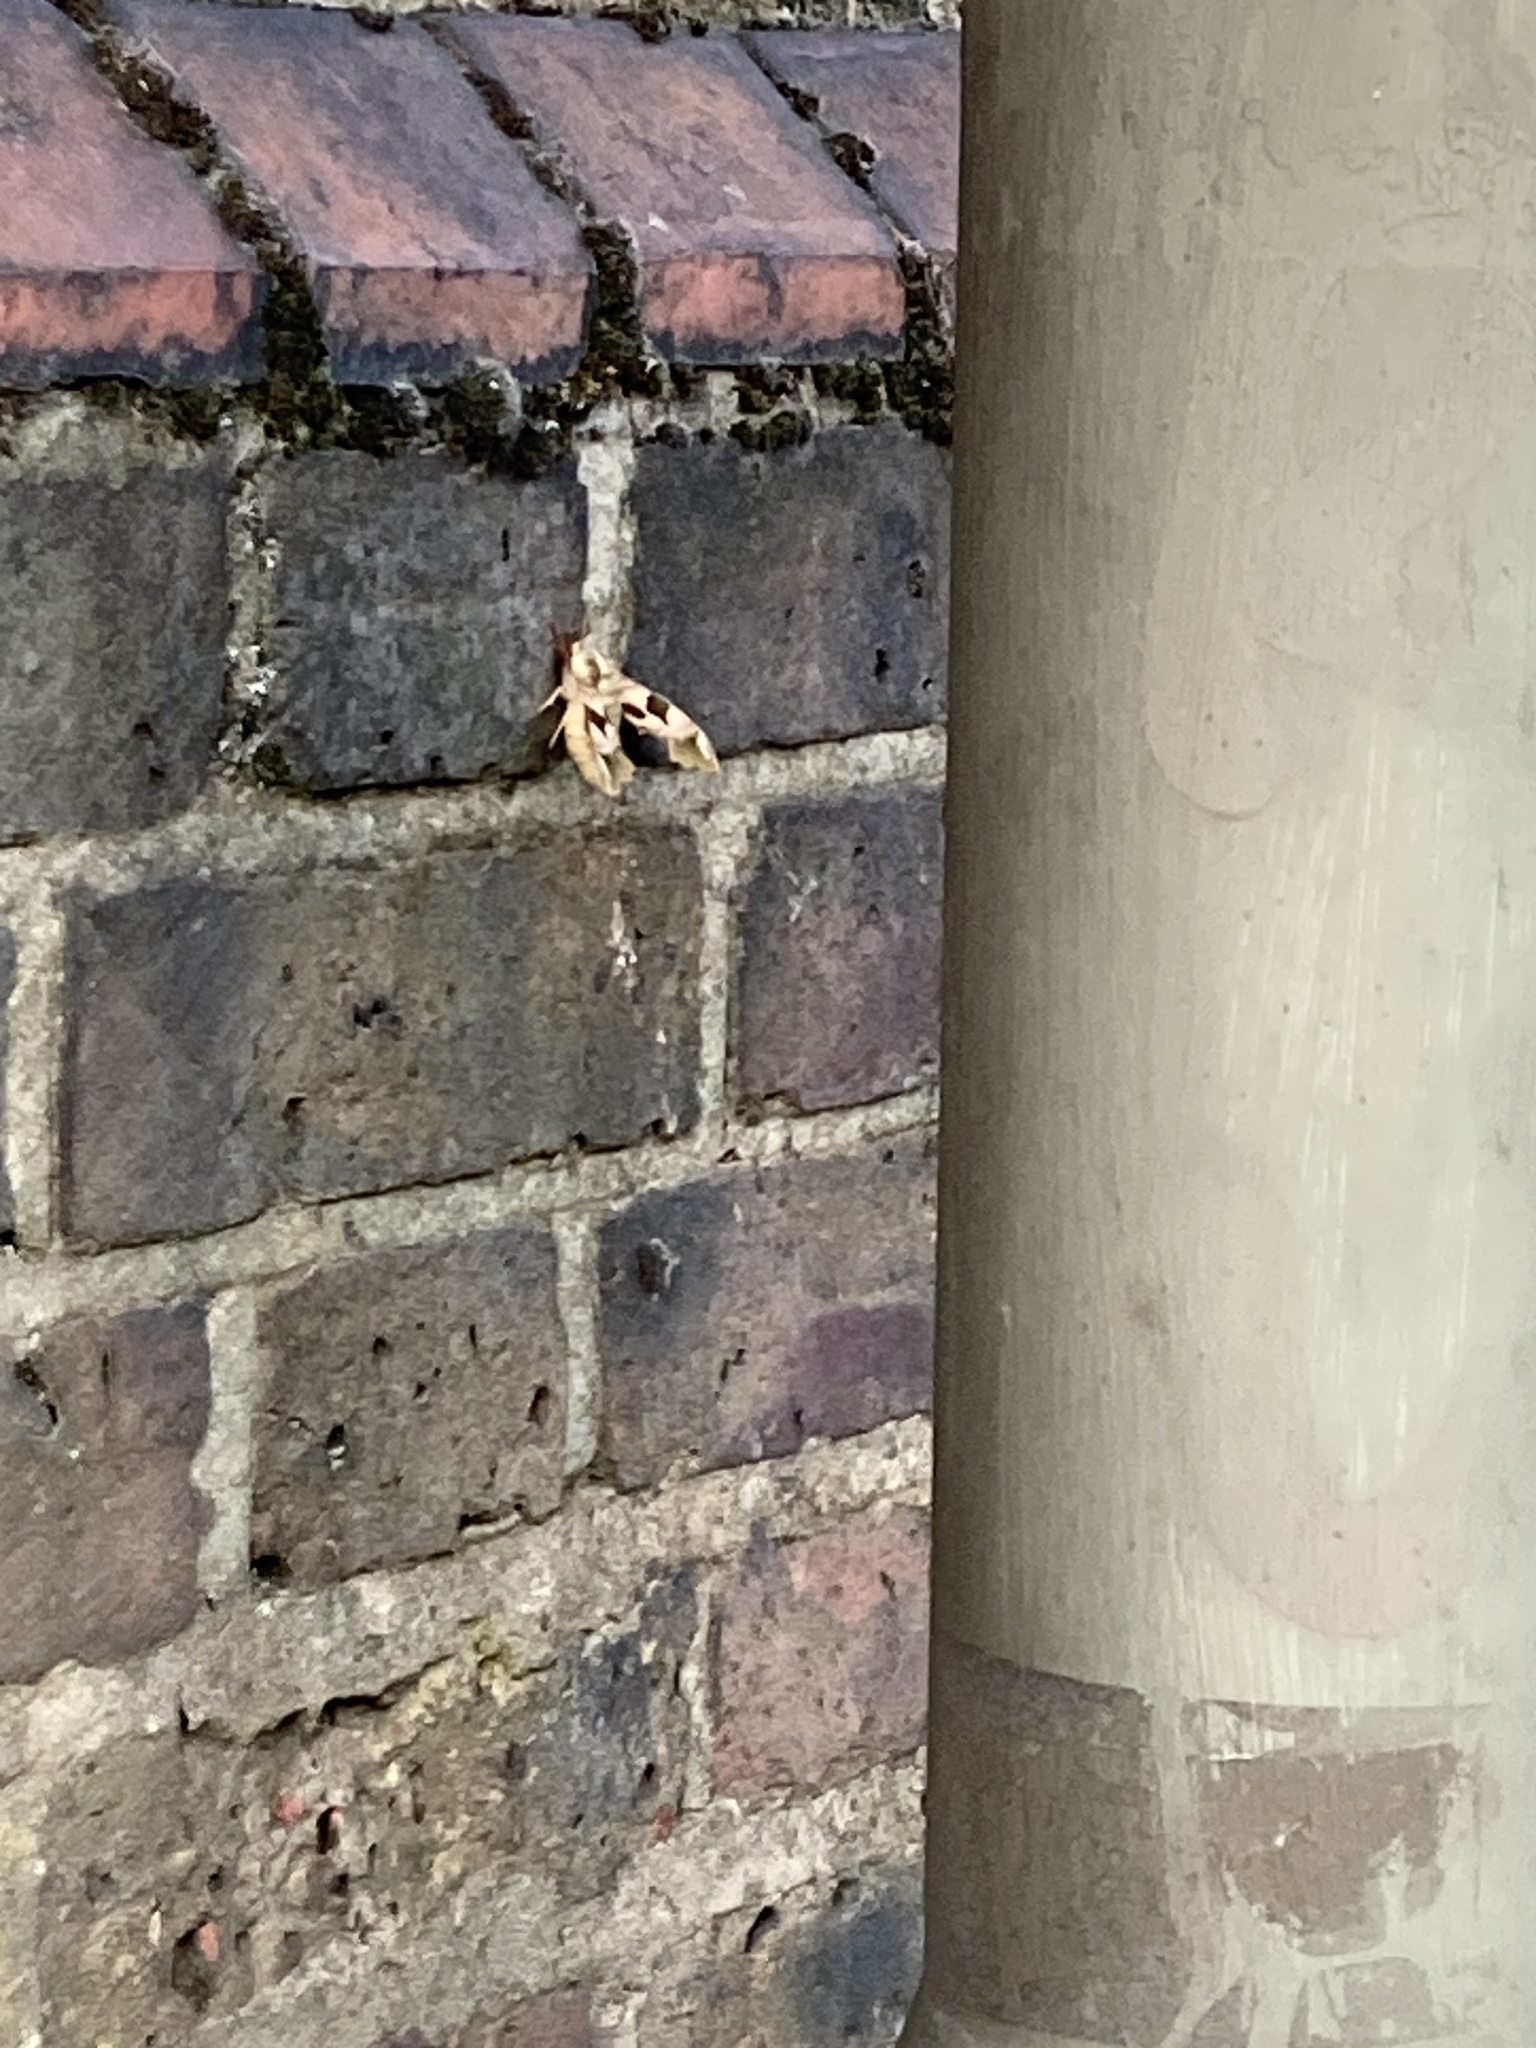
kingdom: Animalia
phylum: Arthropoda
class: Insecta
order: Lepidoptera
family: Sphingidae
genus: Mimas
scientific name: Mimas tiliae
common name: Lime hawk-moth
